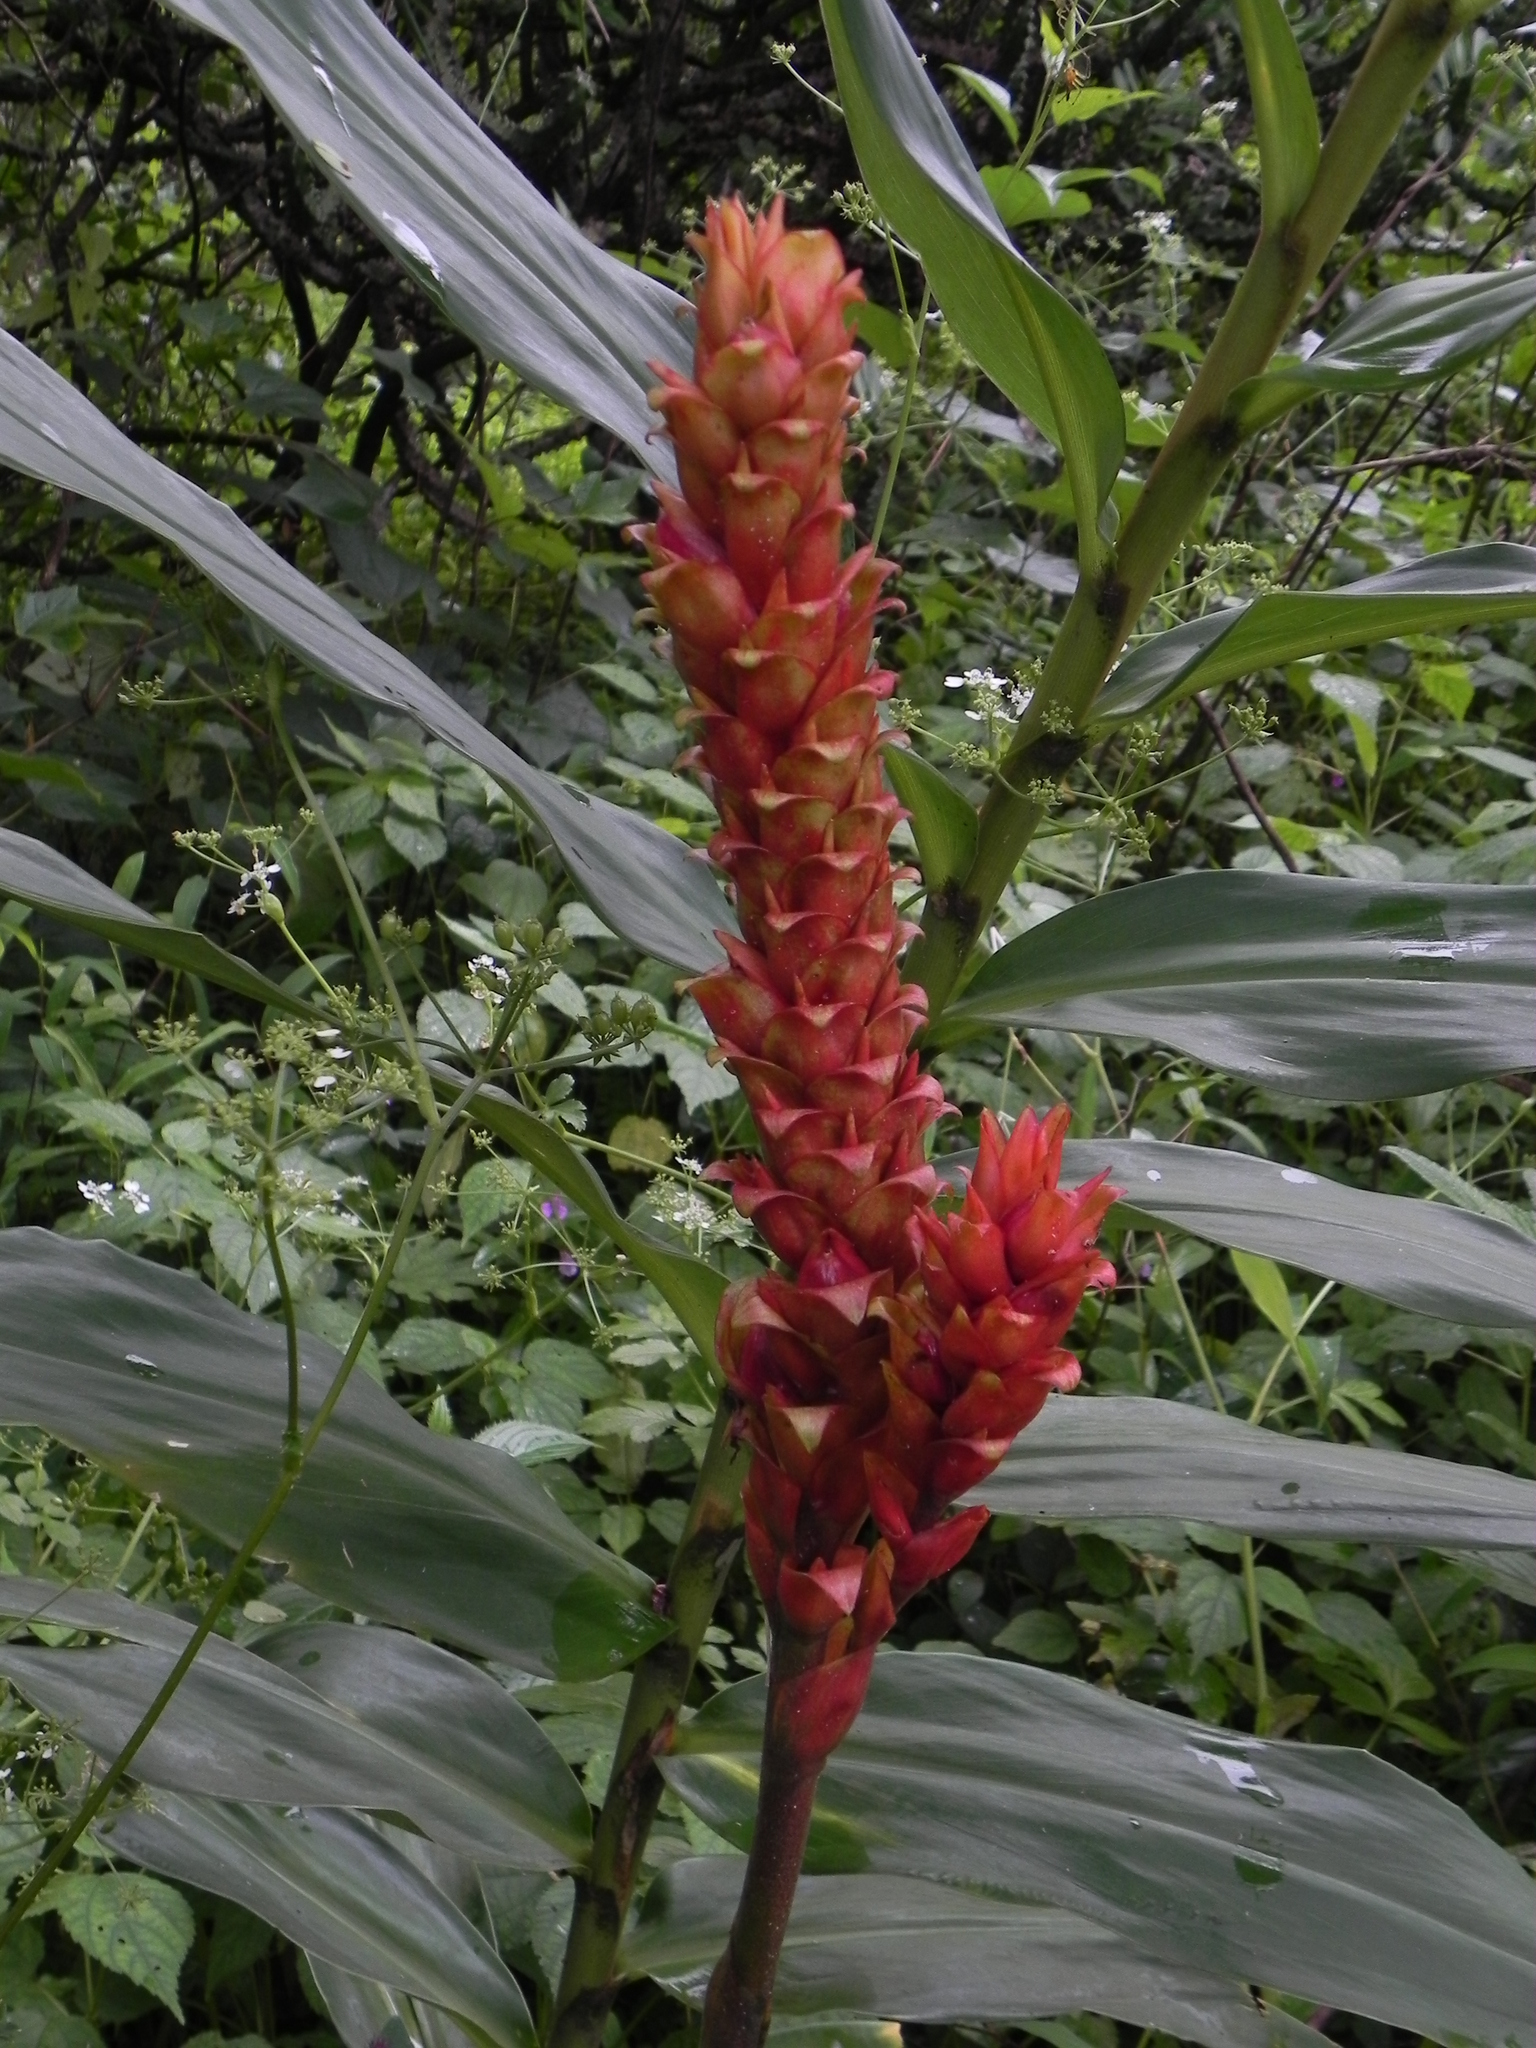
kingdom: Plantae
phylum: Tracheophyta
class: Liliopsida
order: Zingiberales
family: Zingiberaceae
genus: Zingiber
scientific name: Zingiber neesanum
